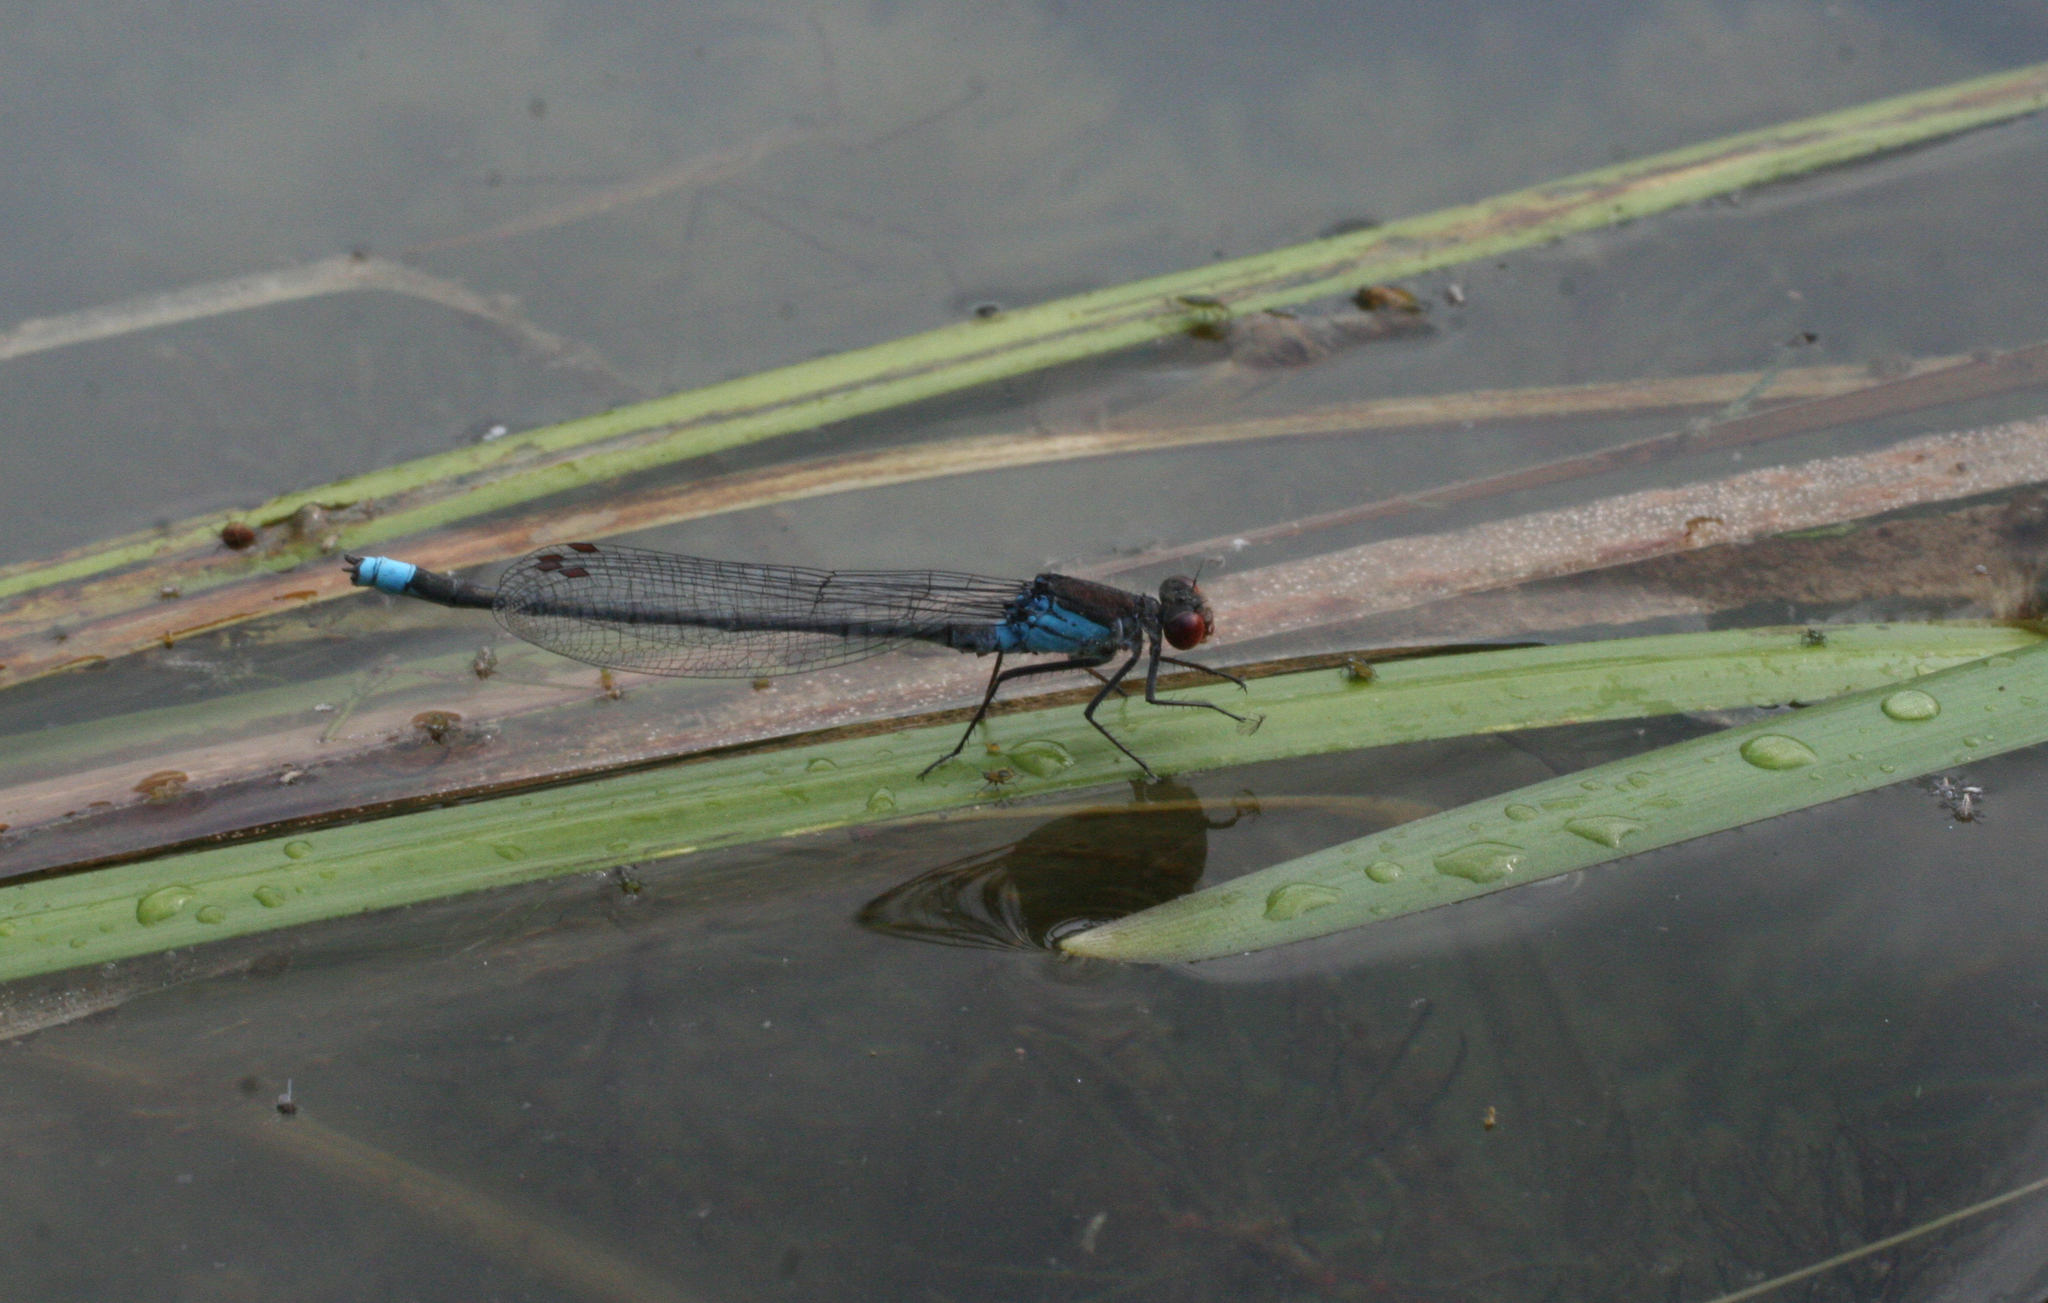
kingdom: Animalia
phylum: Arthropoda
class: Insecta
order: Odonata
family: Coenagrionidae
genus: Erythromma
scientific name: Erythromma najas
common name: Red-eyed damselfly
